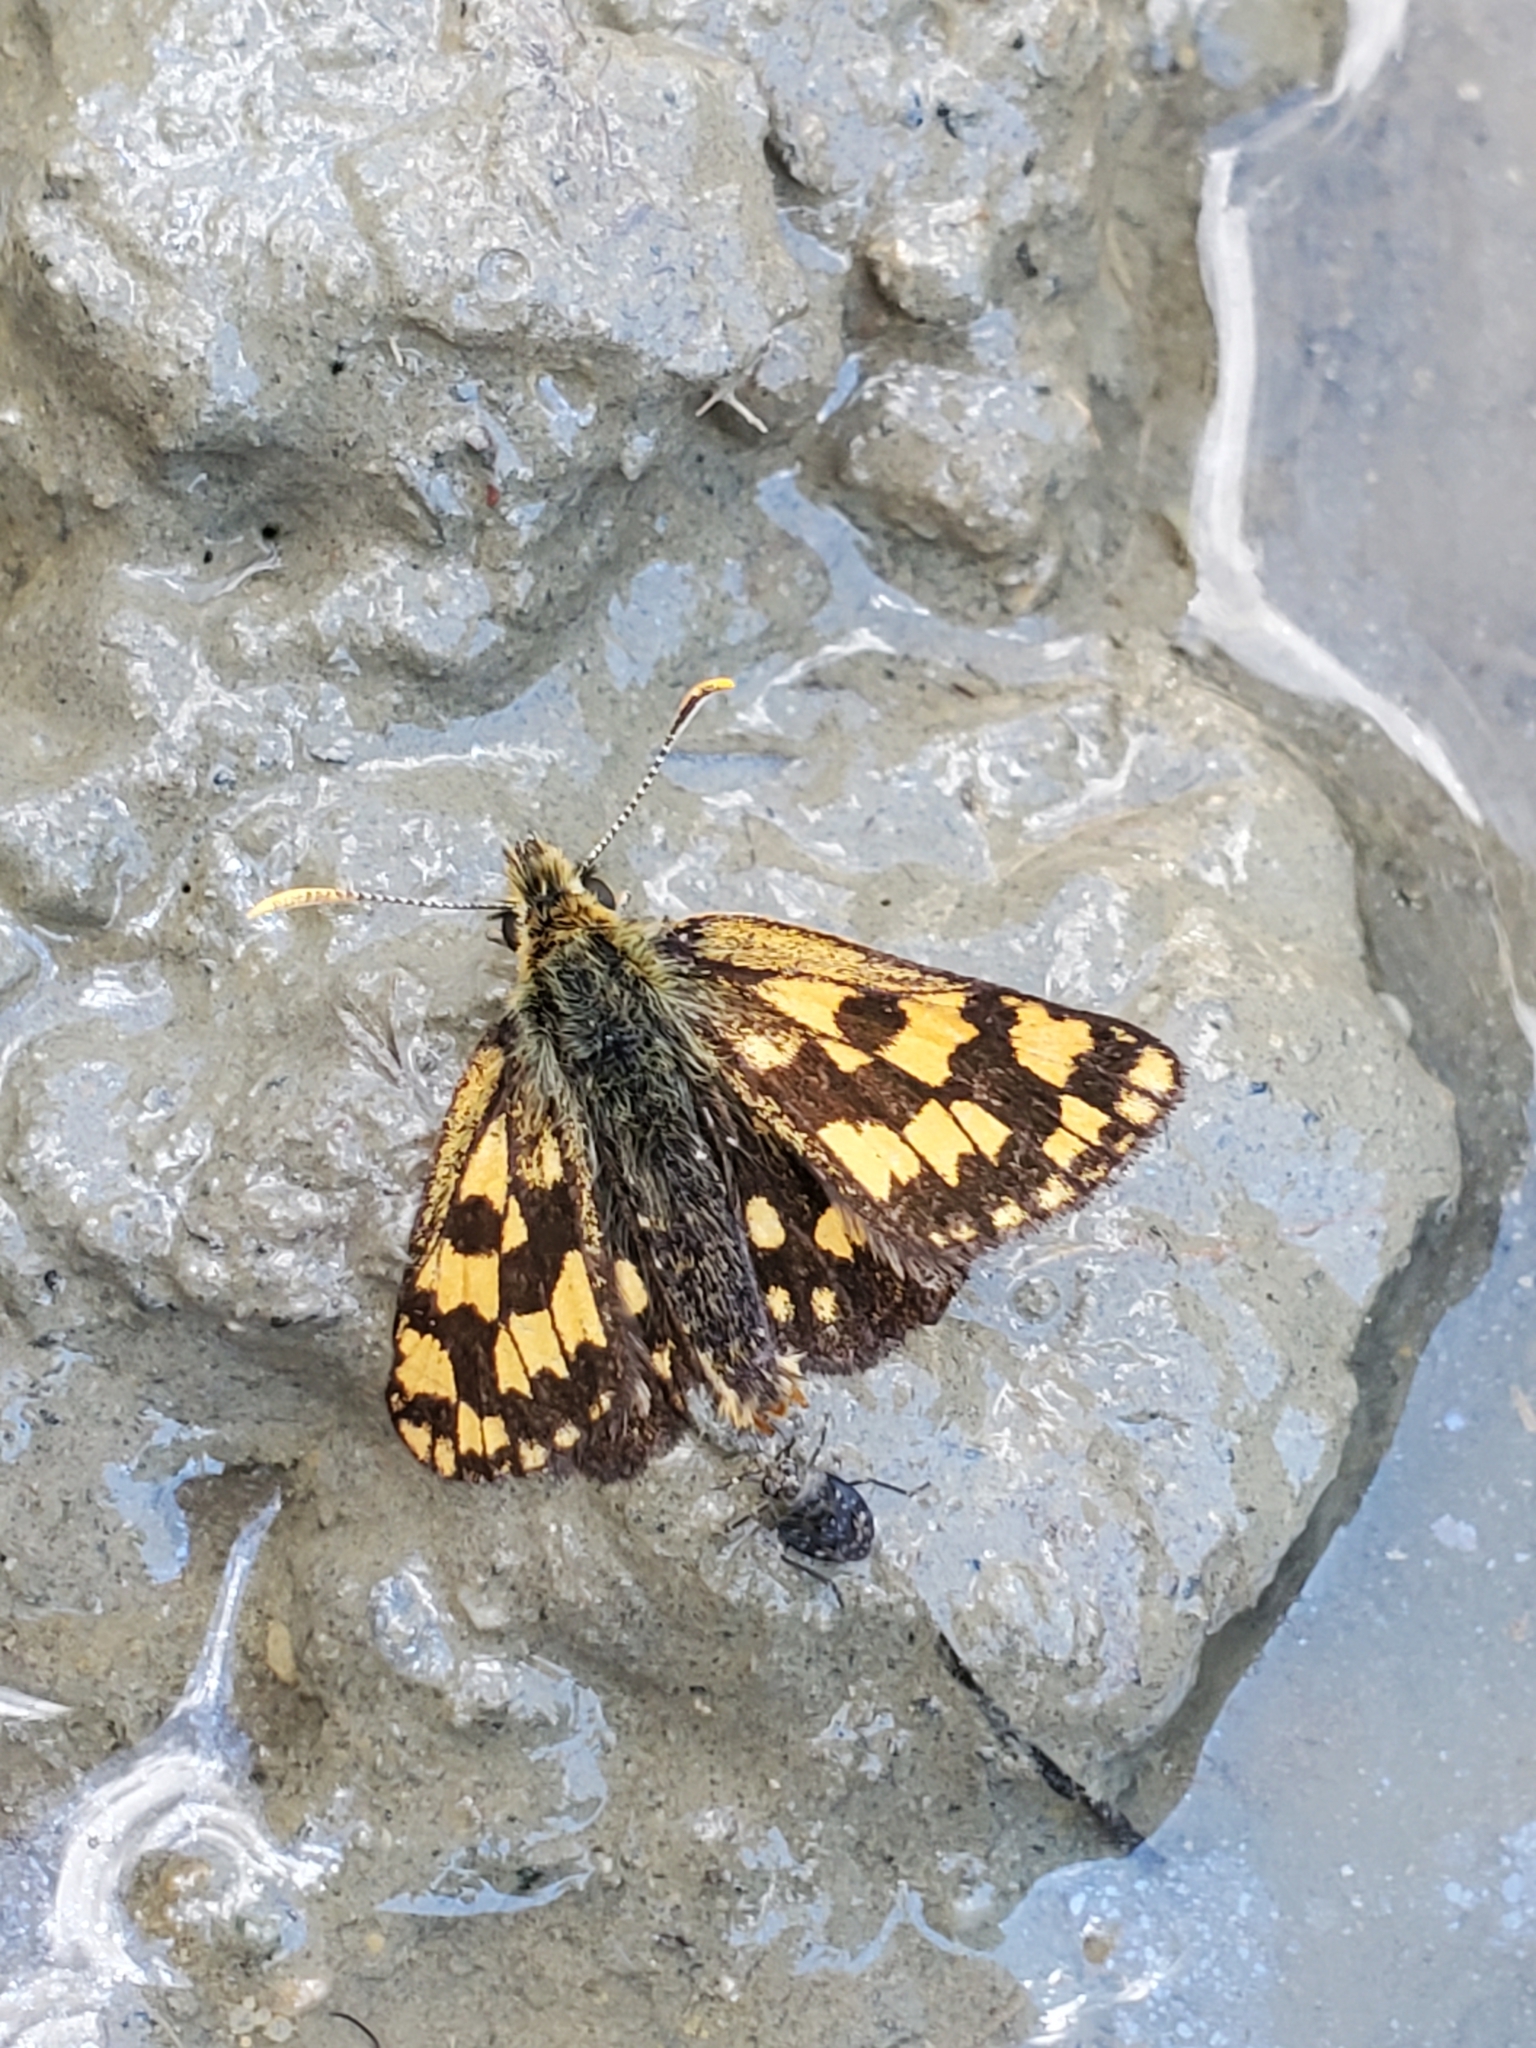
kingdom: Animalia
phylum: Arthropoda
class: Insecta
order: Lepidoptera
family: Hesperiidae
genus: Carterocephalus
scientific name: Carterocephalus skada
